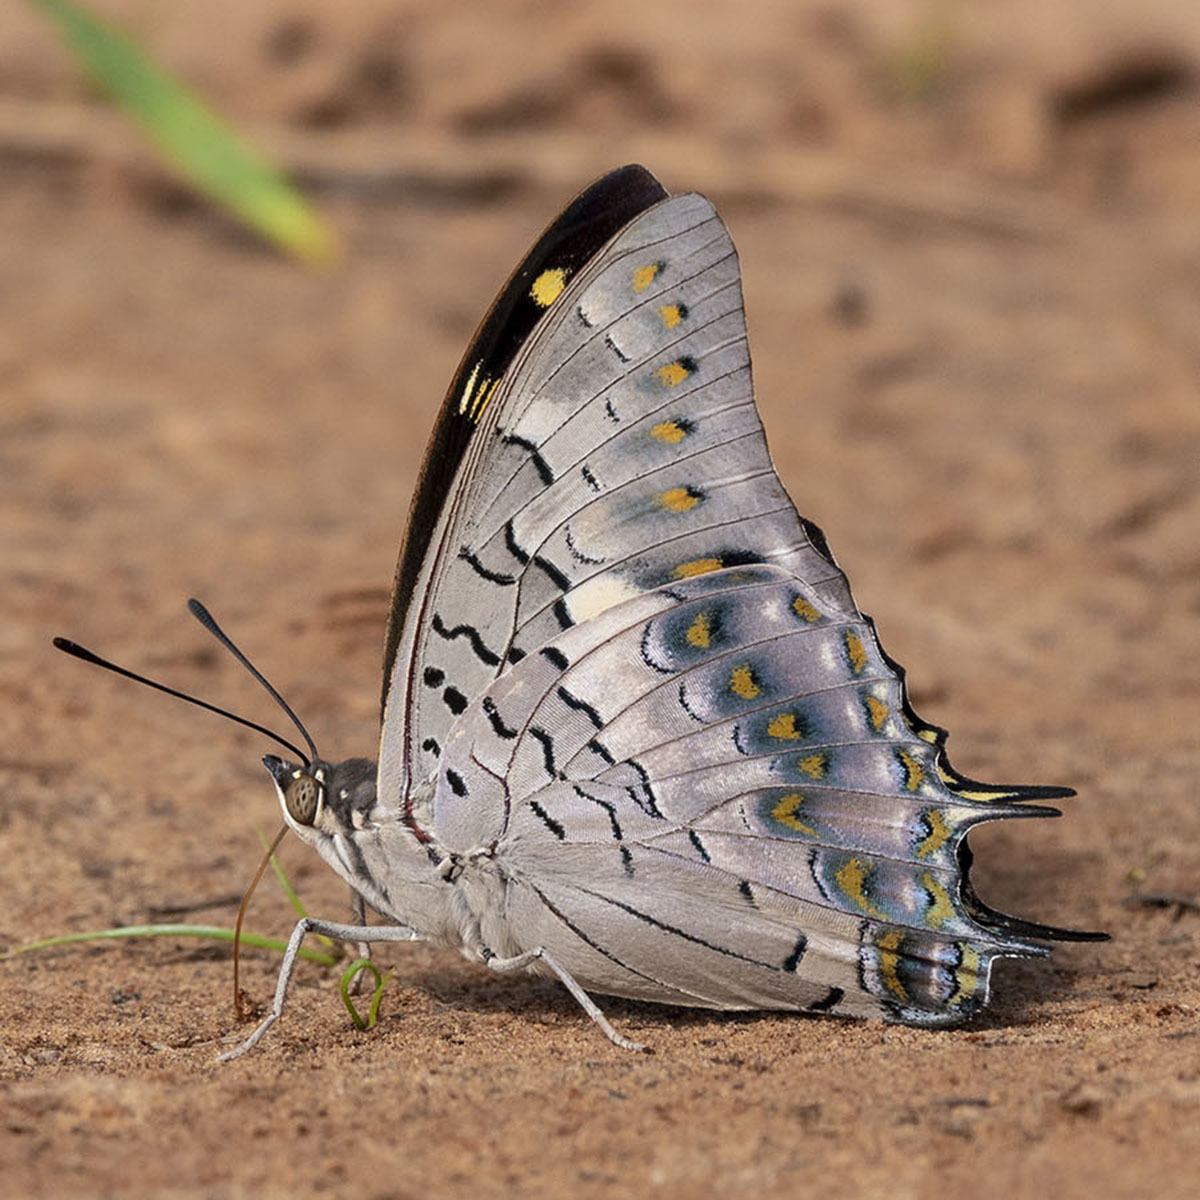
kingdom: Animalia
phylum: Arthropoda
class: Insecta
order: Lepidoptera
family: Nymphalidae
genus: Charaxes
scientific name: Charaxes solon
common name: Black rajah
